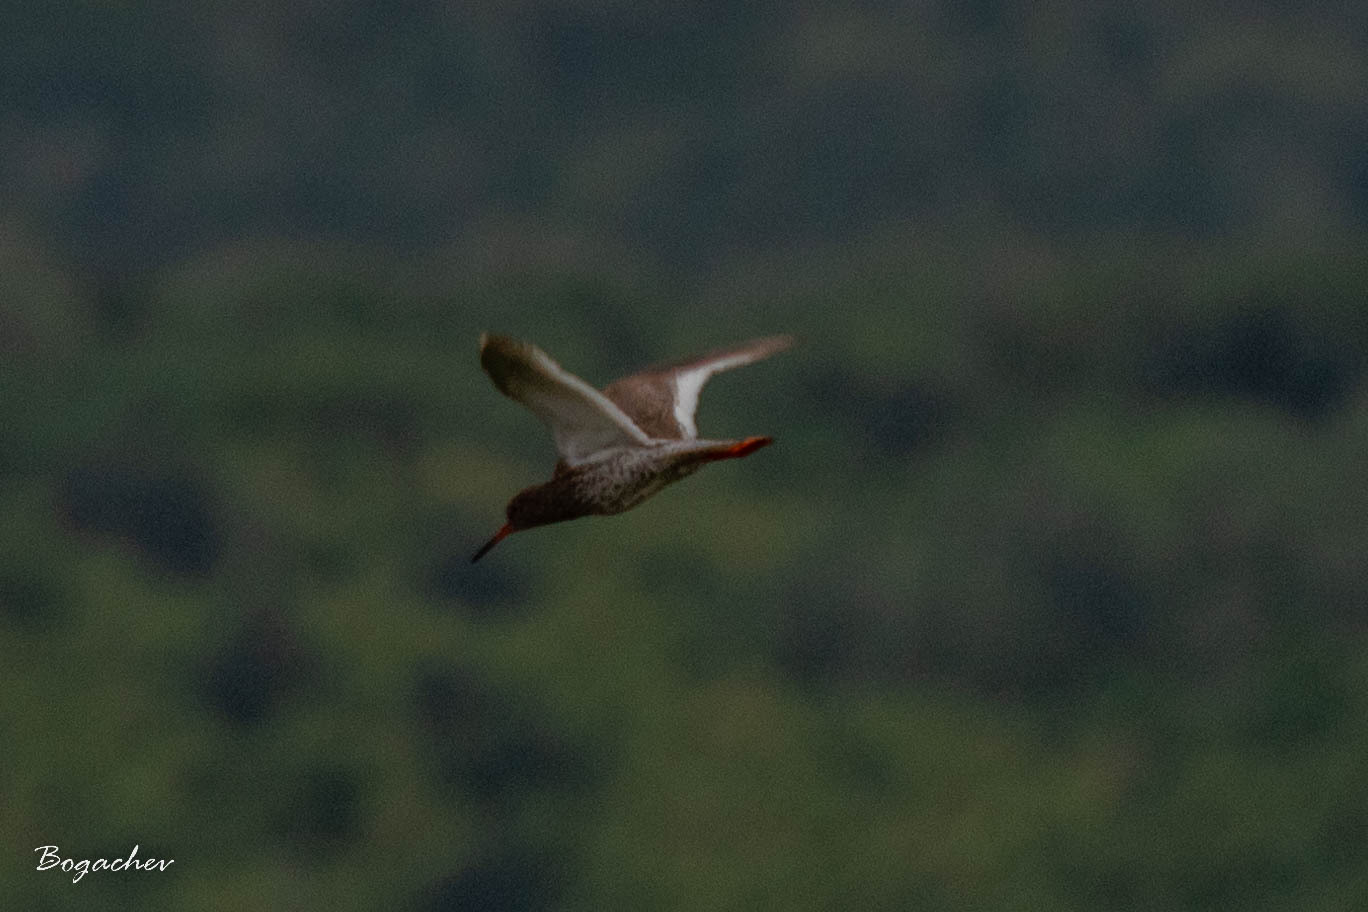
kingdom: Animalia
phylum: Chordata
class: Aves
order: Charadriiformes
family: Scolopacidae
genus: Tringa
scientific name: Tringa totanus
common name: Common redshank
